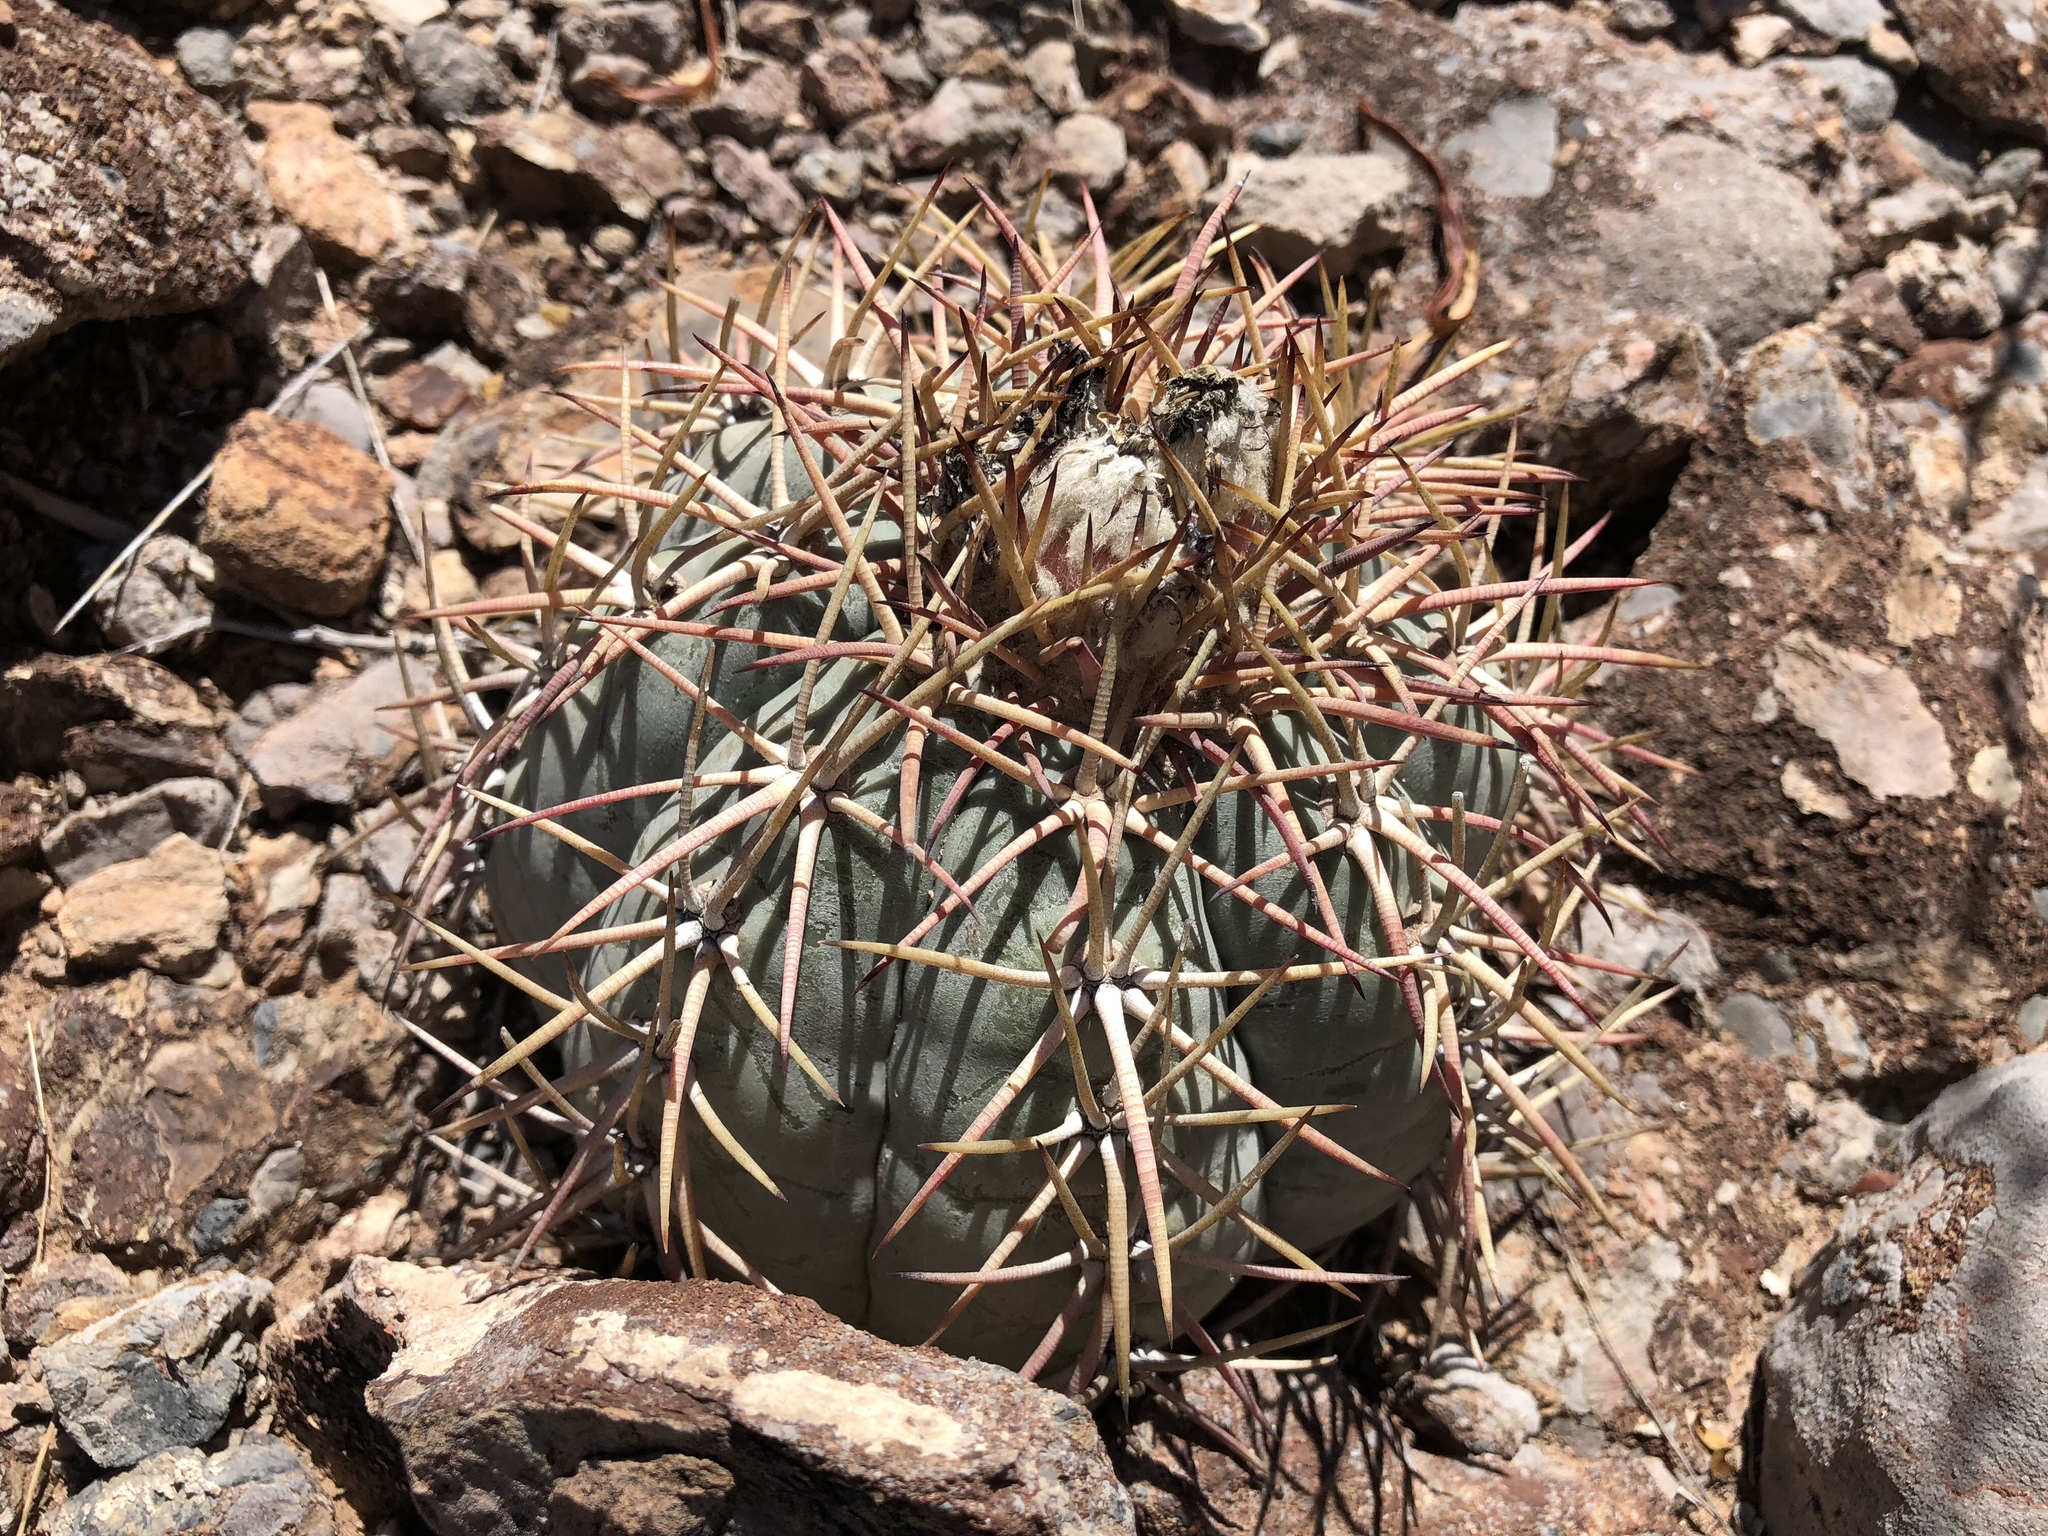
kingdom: Plantae
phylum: Tracheophyta
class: Magnoliopsida
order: Caryophyllales
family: Cactaceae
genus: Echinocactus
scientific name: Echinocactus horizonthalonius
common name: Devilshead
